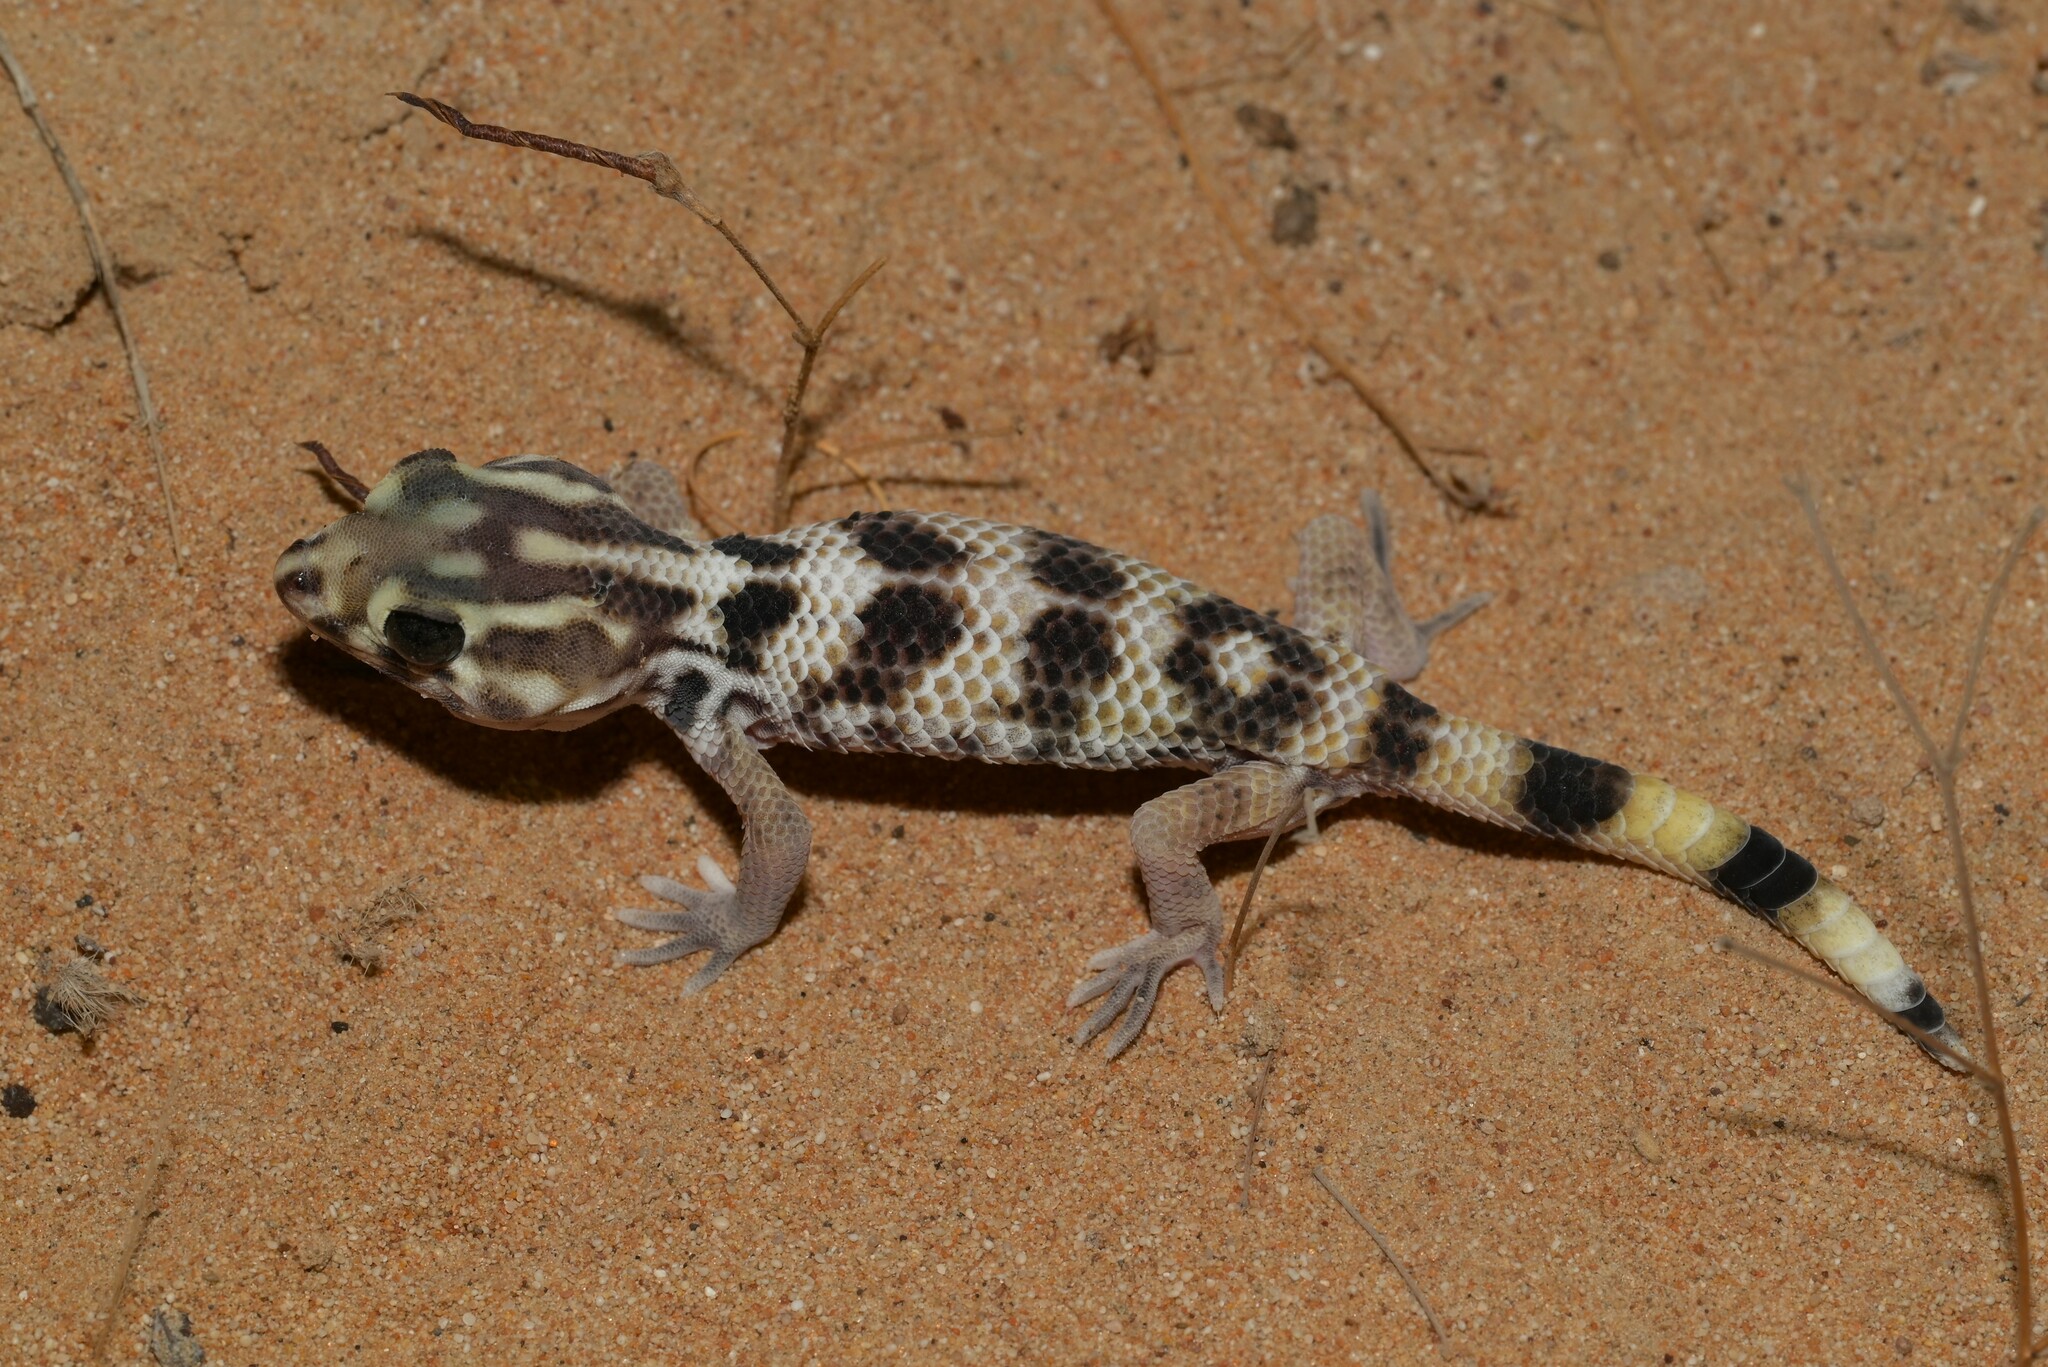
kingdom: Animalia
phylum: Chordata
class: Squamata
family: Sphaerodactylidae
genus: Teratoscincus
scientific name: Teratoscincus keyserlingii
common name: Frog-eyed gecko
